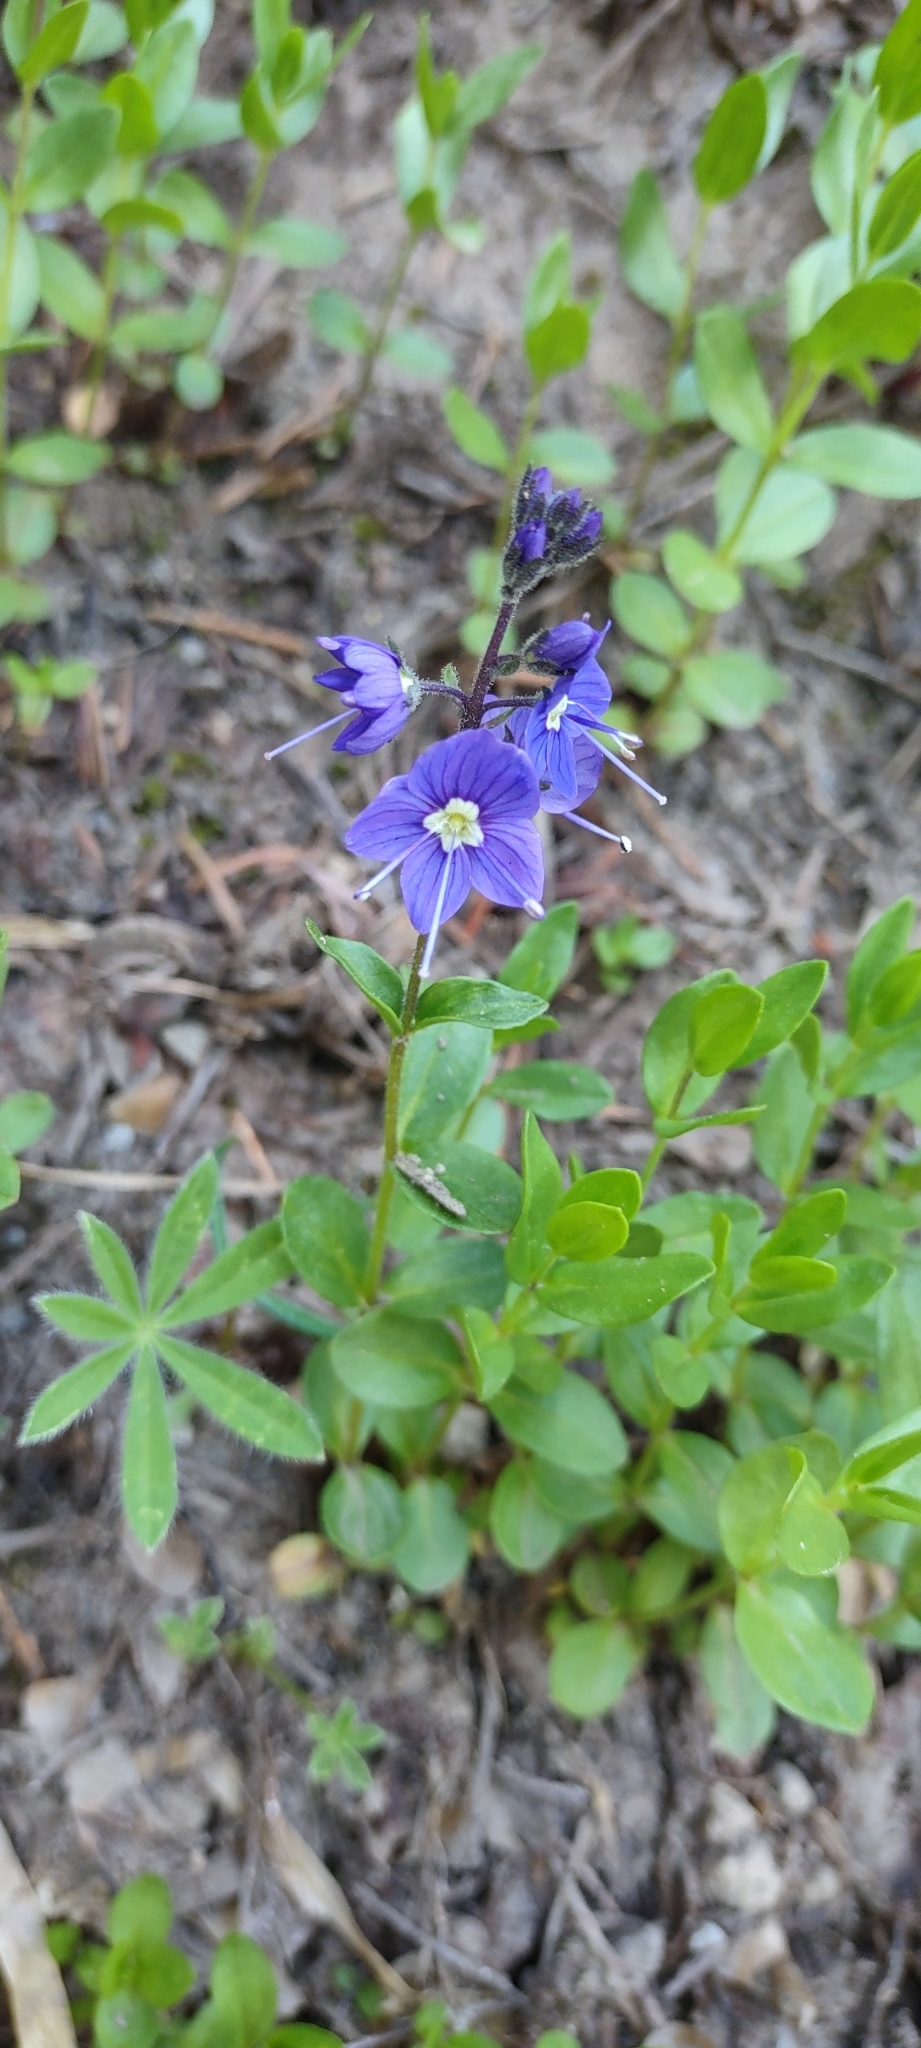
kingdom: Plantae
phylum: Tracheophyta
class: Magnoliopsida
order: Lamiales
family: Plantaginaceae
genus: Veronica
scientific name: Veronica cusickii
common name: Cusick's speedwell
